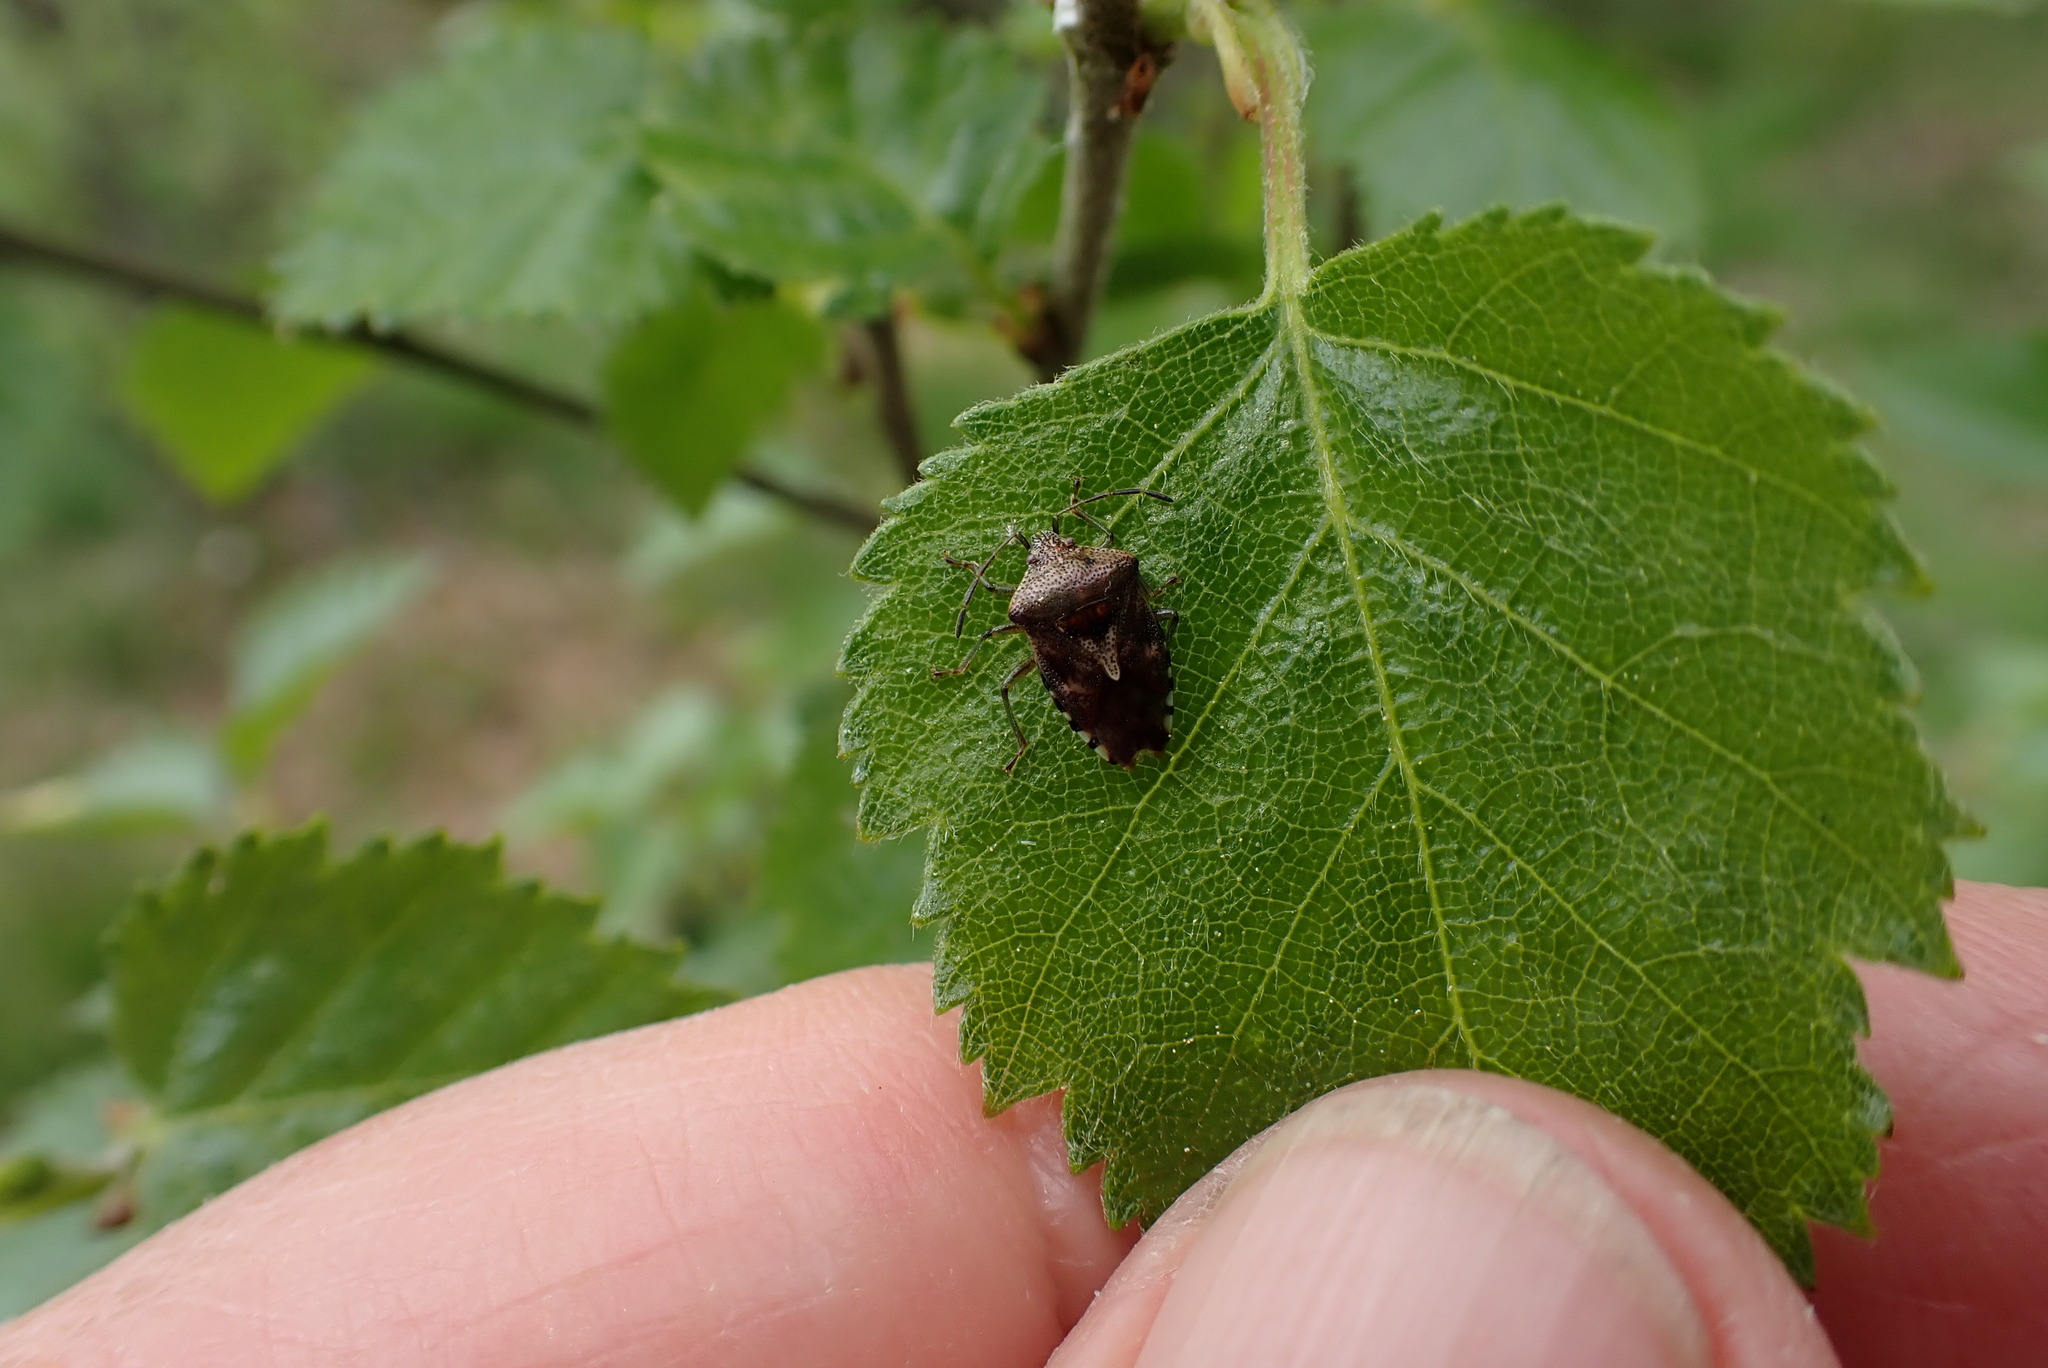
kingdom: Animalia
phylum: Arthropoda
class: Insecta
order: Hemiptera
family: Acanthosomatidae
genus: Elasmucha
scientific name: Elasmucha grisea
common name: Parent bug
